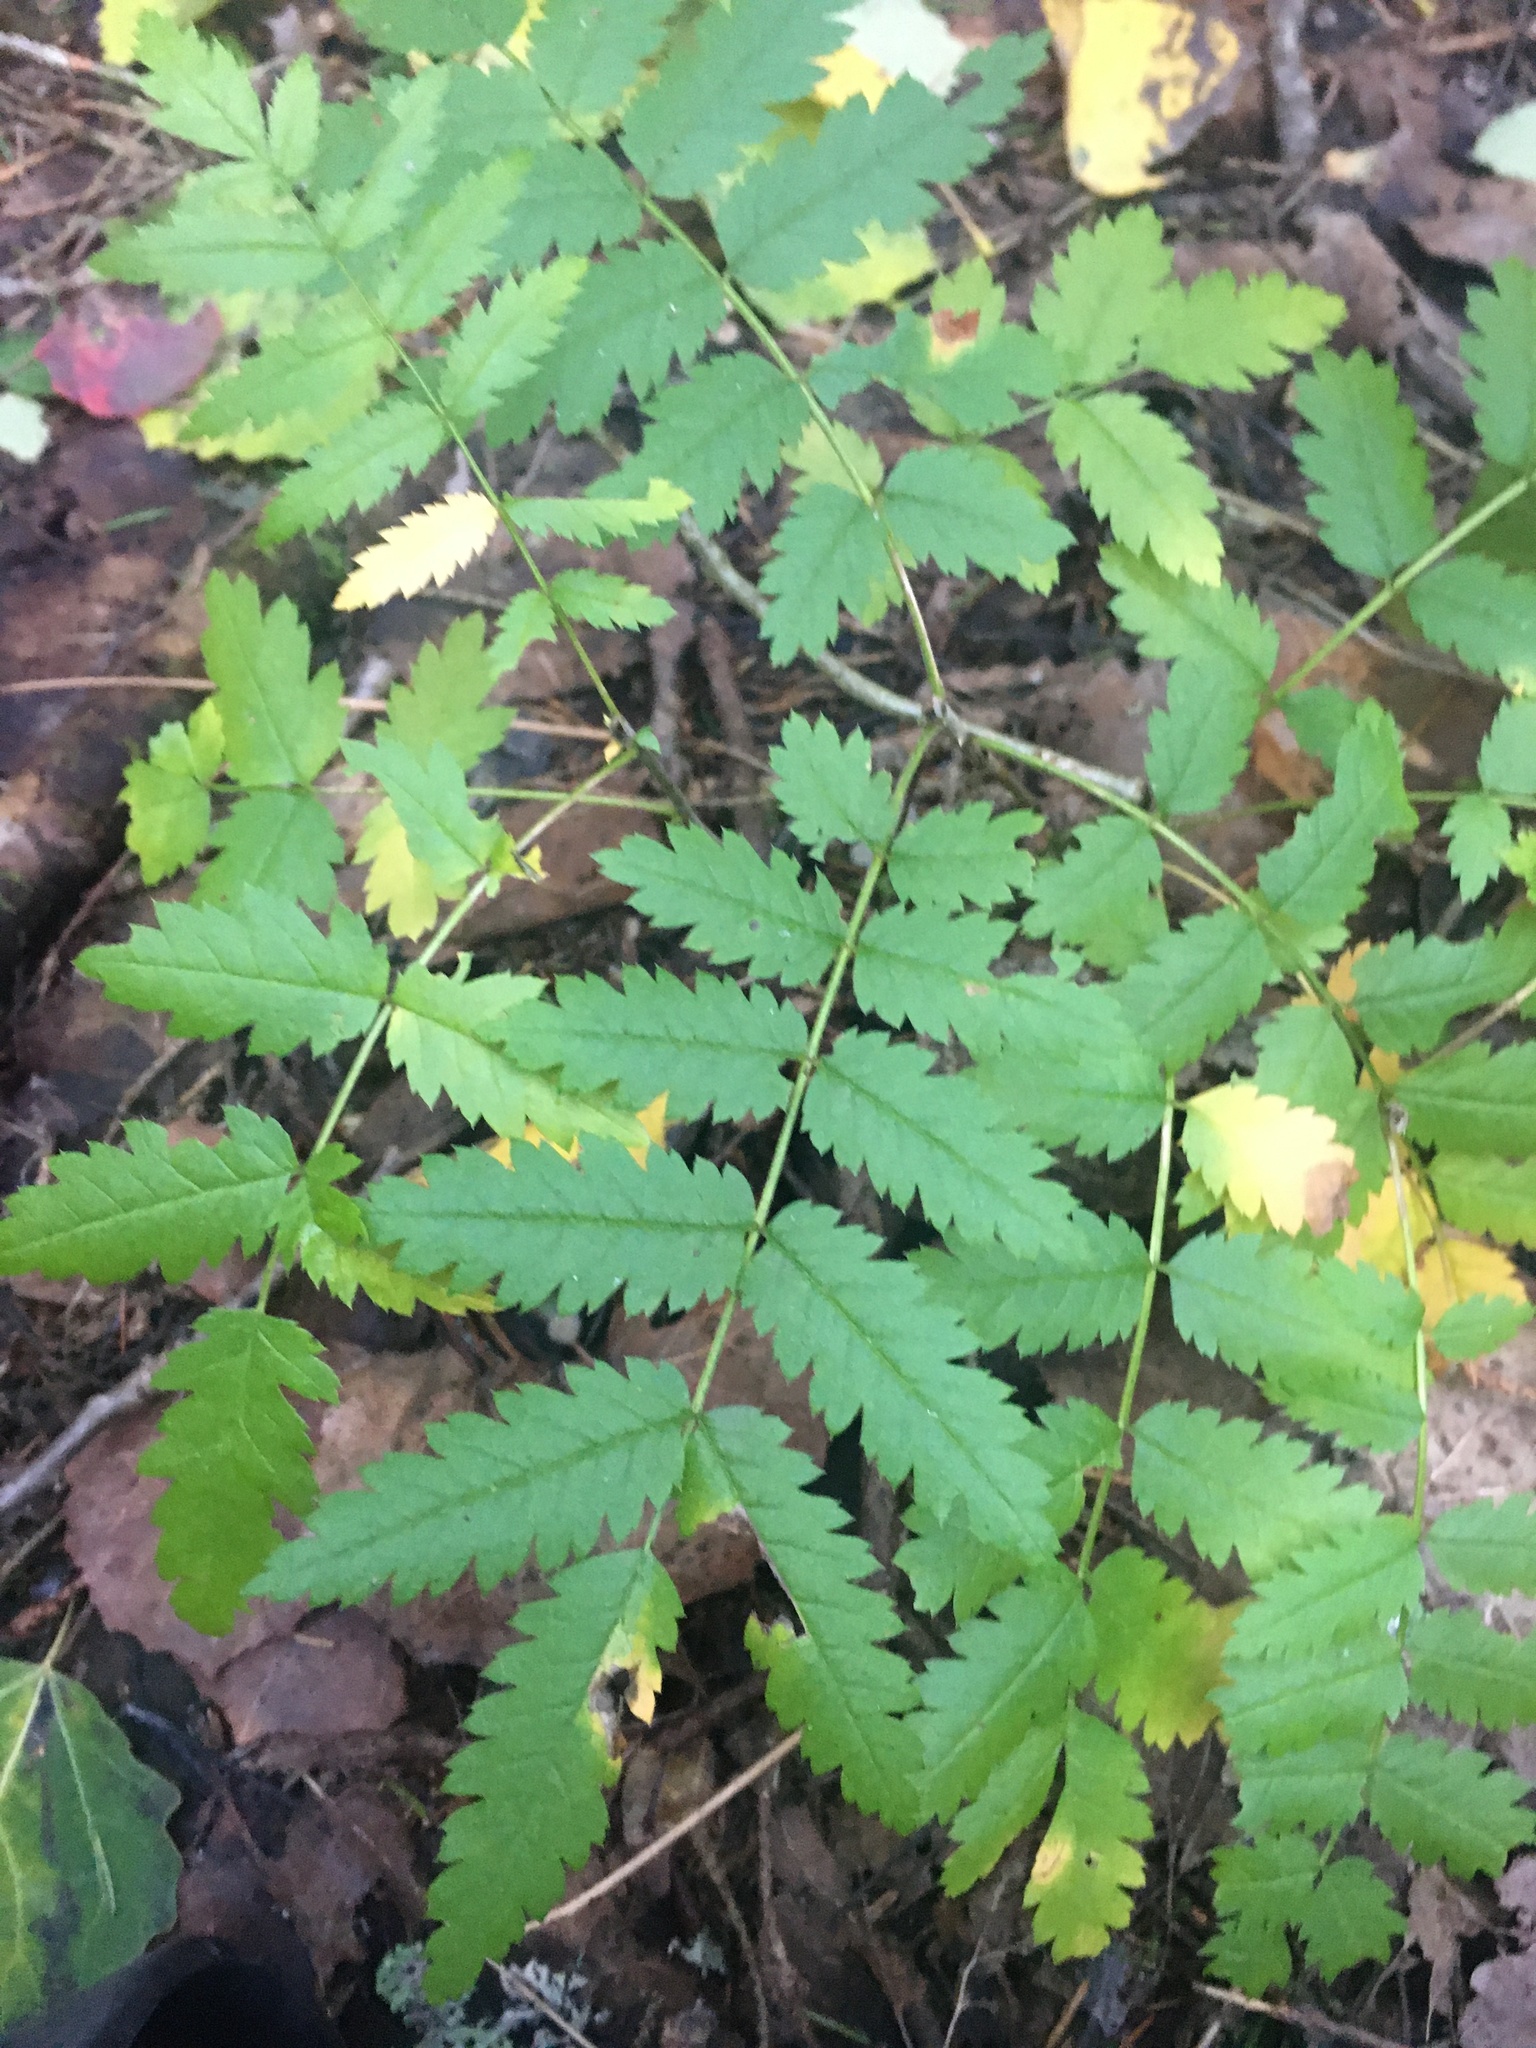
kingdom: Plantae
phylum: Tracheophyta
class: Magnoliopsida
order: Rosales
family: Rosaceae
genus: Sorbus
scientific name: Sorbus aucuparia
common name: Rowan
